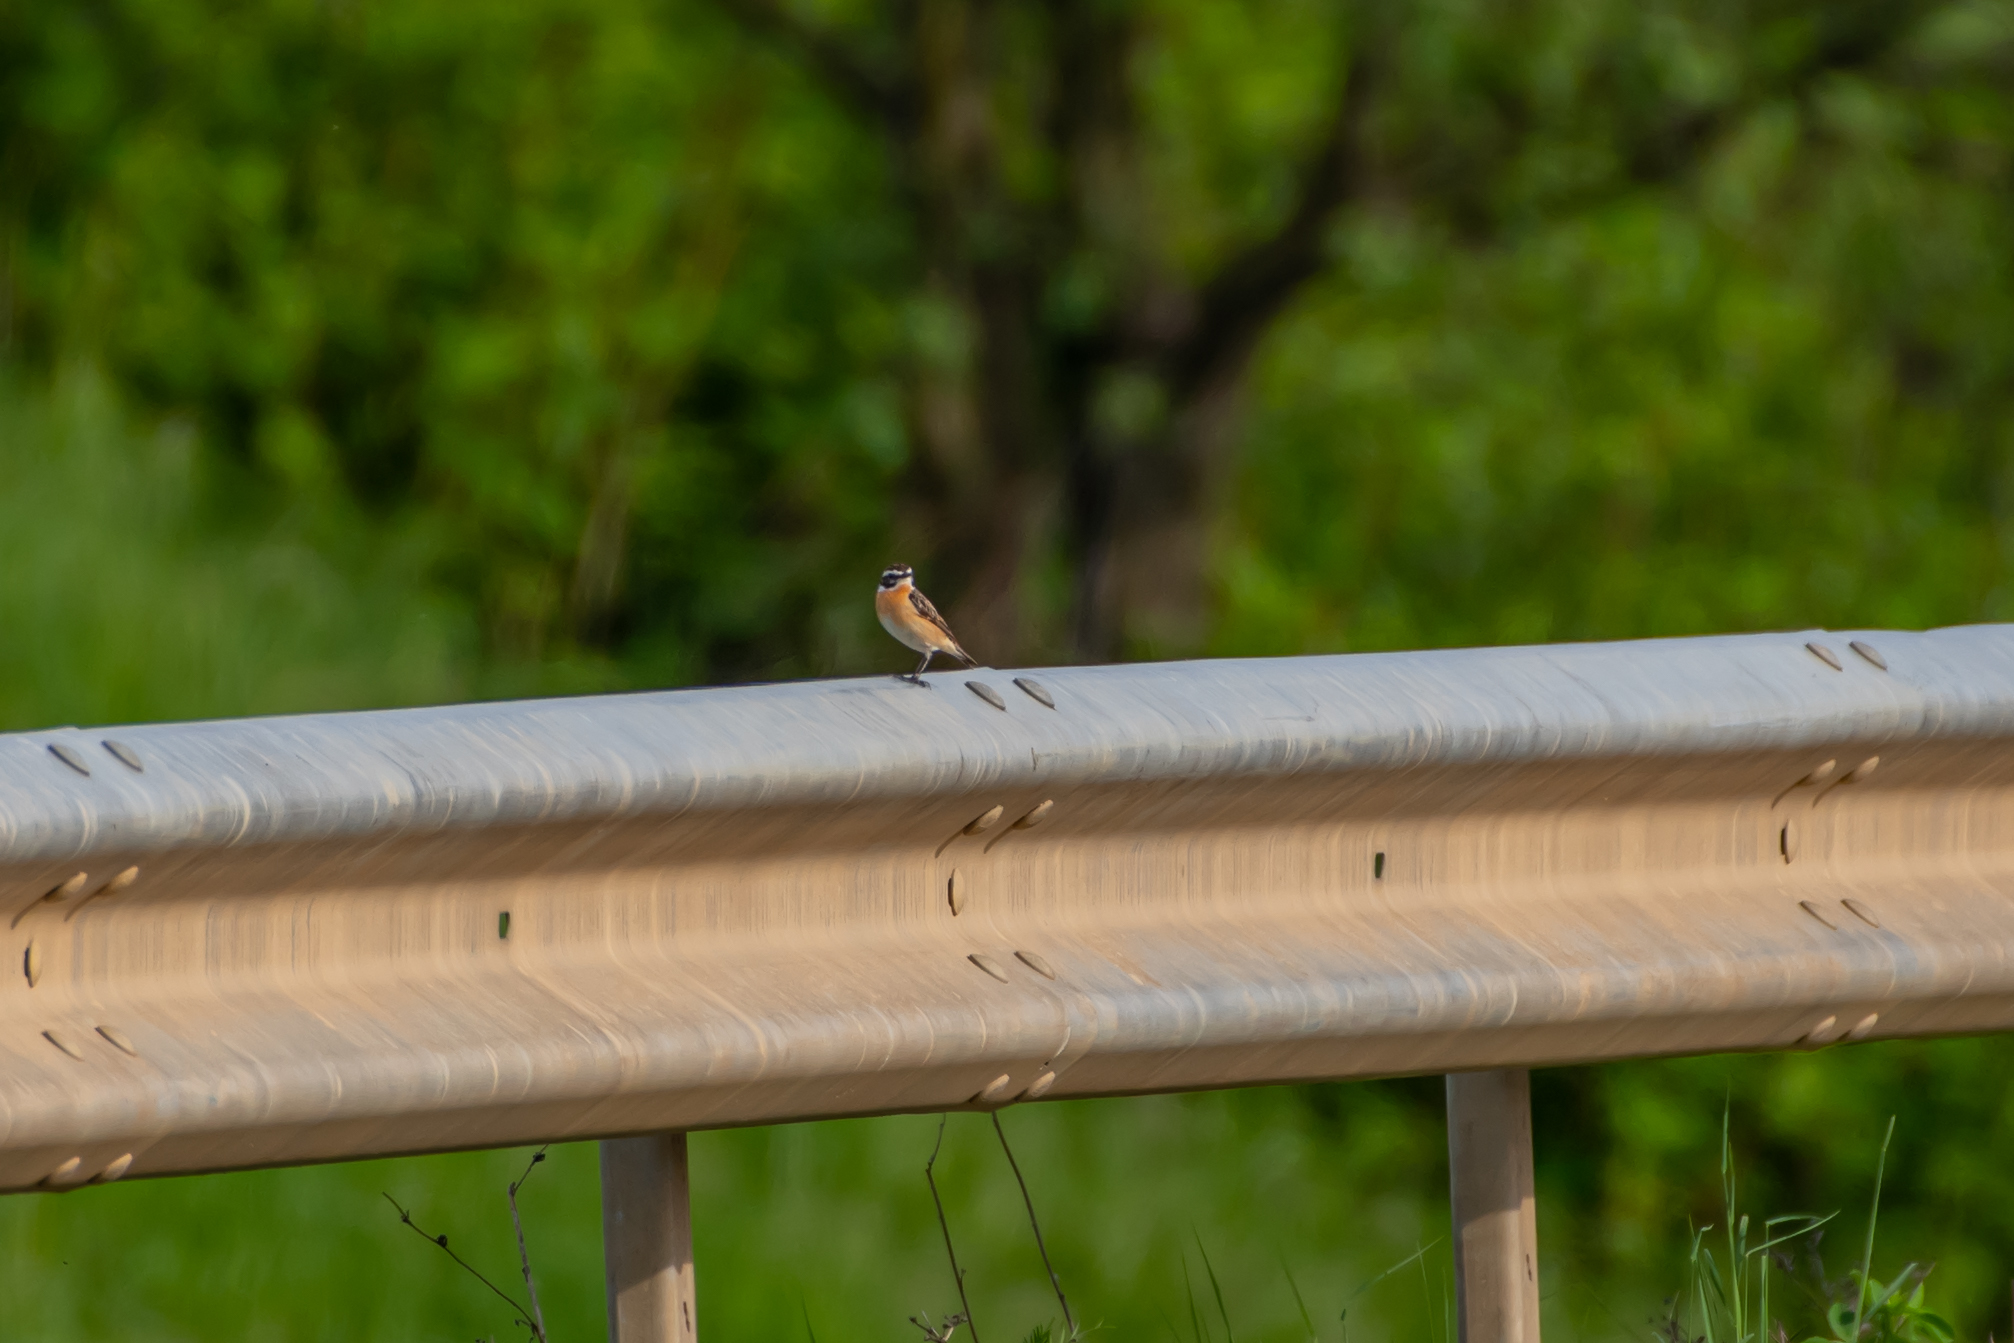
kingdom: Animalia
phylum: Chordata
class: Aves
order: Passeriformes
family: Muscicapidae
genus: Saxicola
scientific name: Saxicola rubetra
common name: Whinchat
